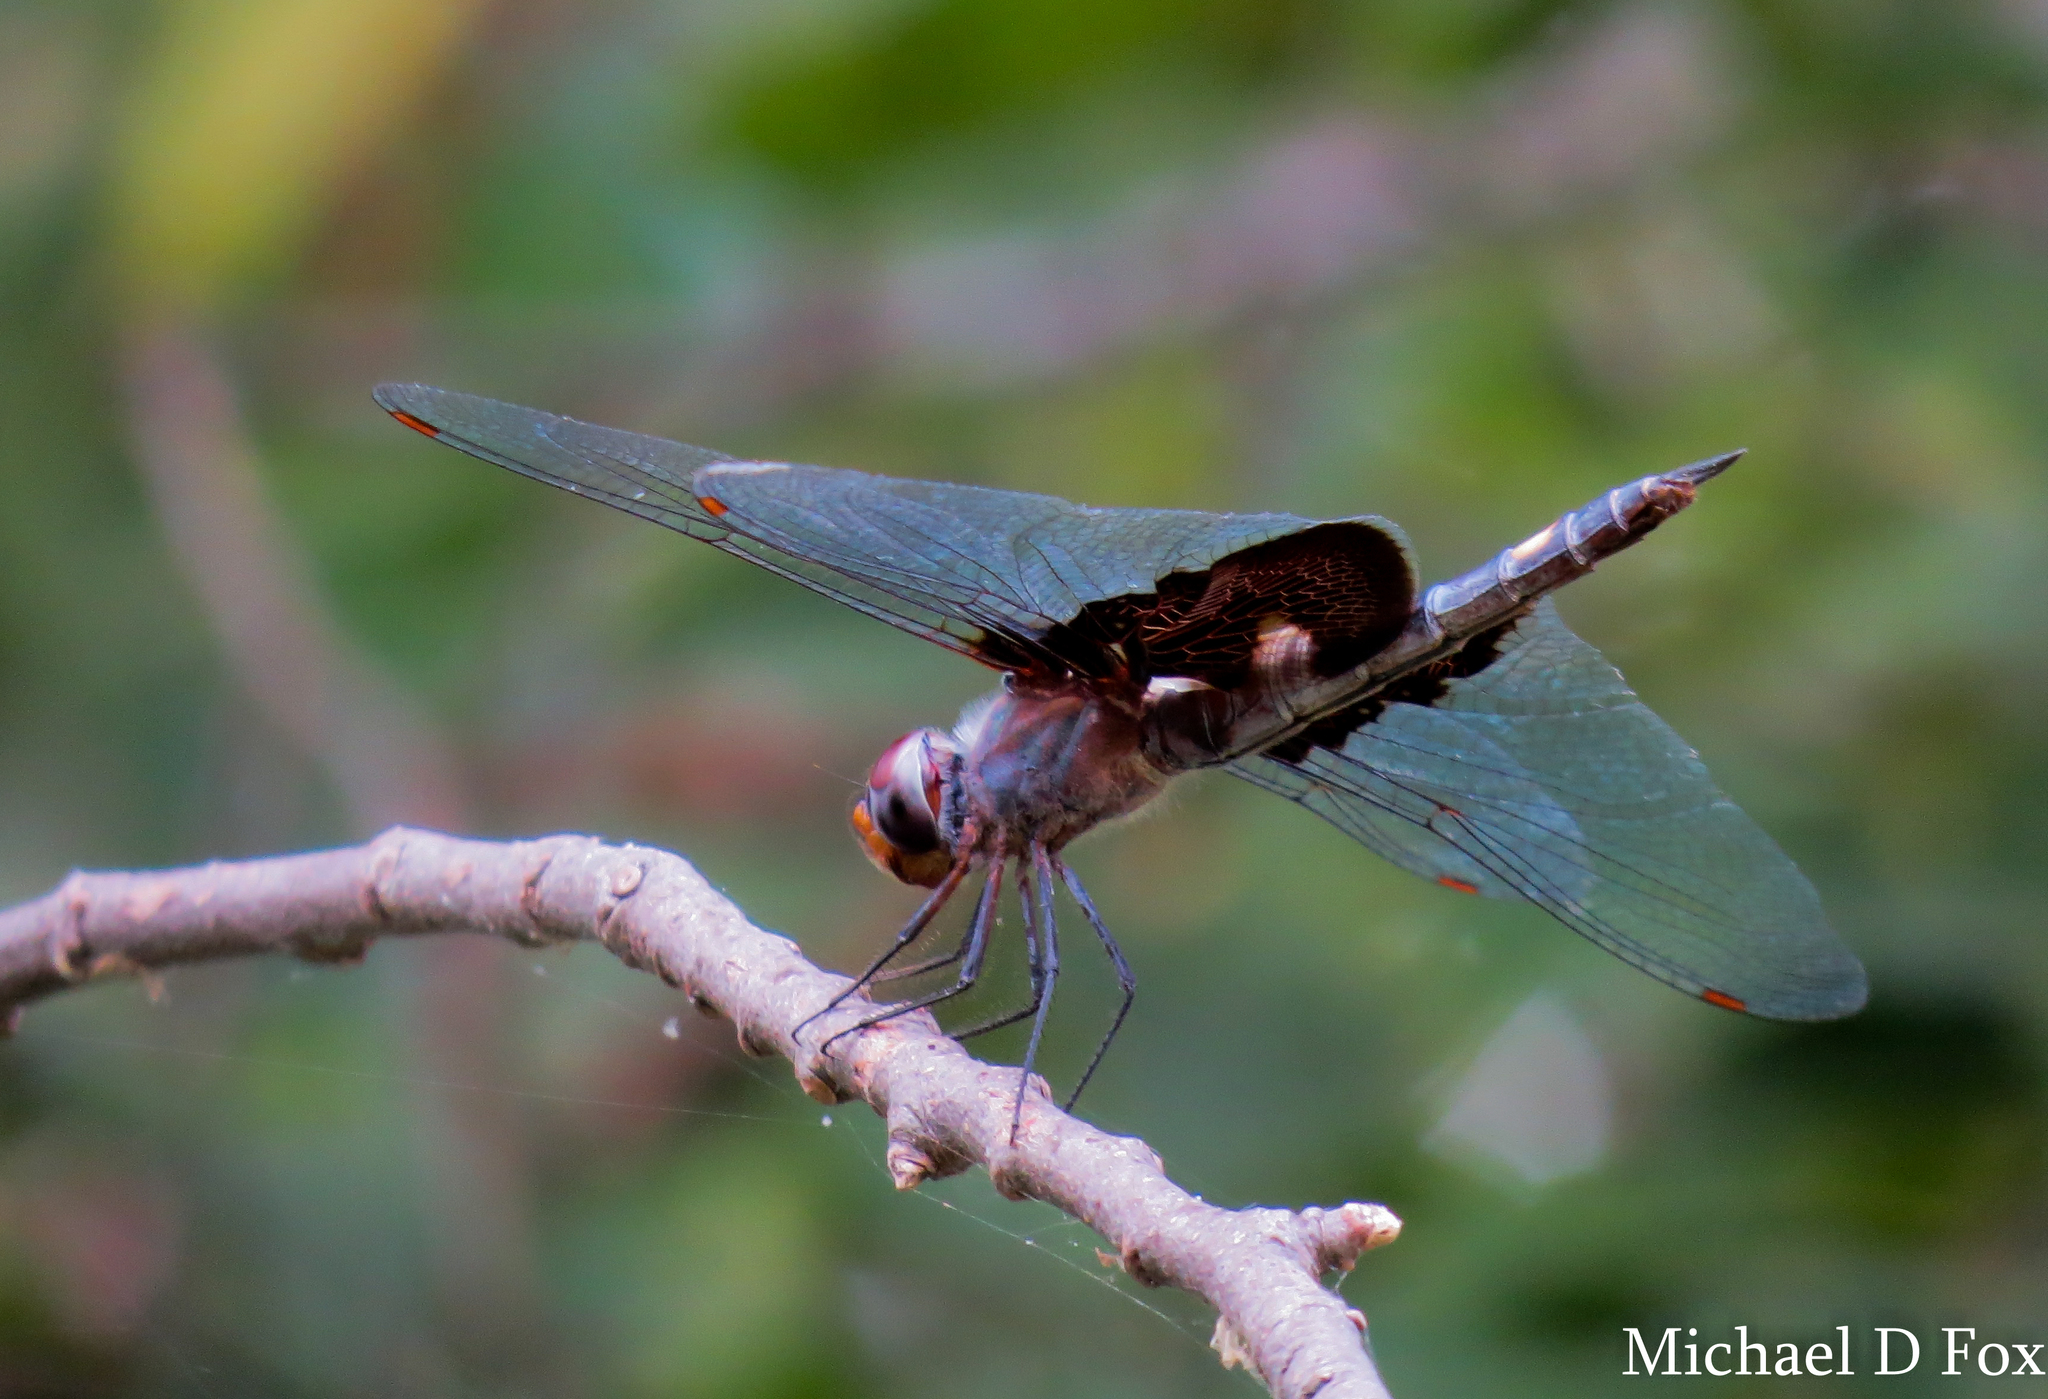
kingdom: Animalia
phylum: Arthropoda
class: Insecta
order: Odonata
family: Libellulidae
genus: Tramea
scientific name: Tramea lacerata
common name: Black saddlebags
